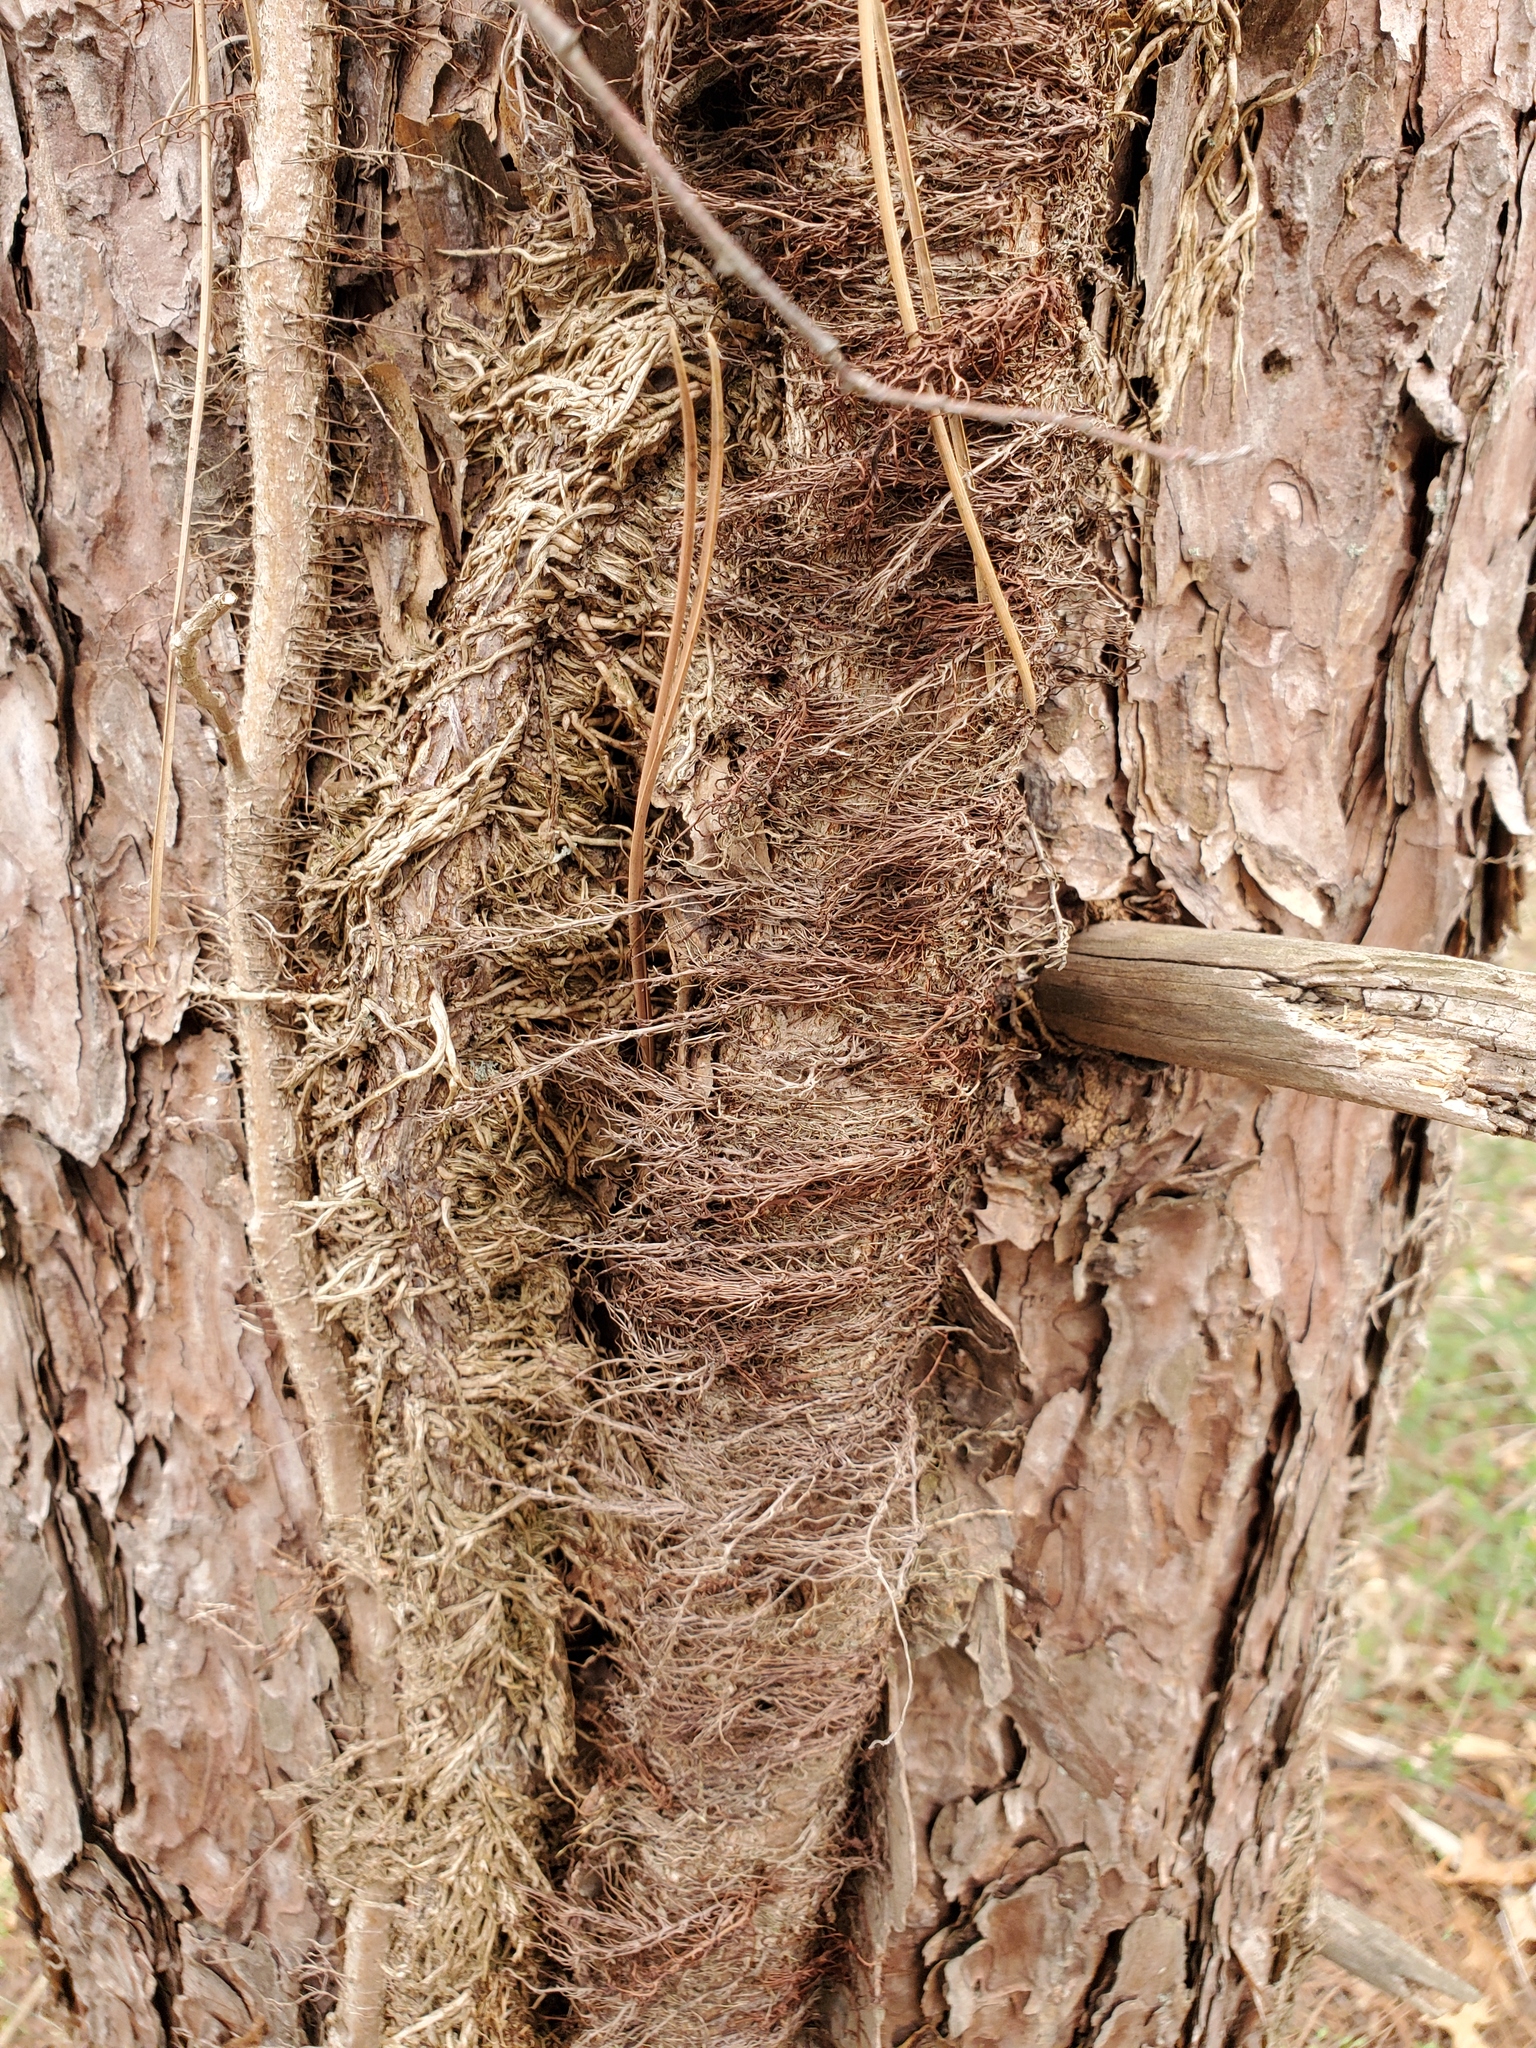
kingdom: Plantae
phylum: Tracheophyta
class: Magnoliopsida
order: Sapindales
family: Anacardiaceae
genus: Toxicodendron
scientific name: Toxicodendron radicans
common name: Poison ivy
